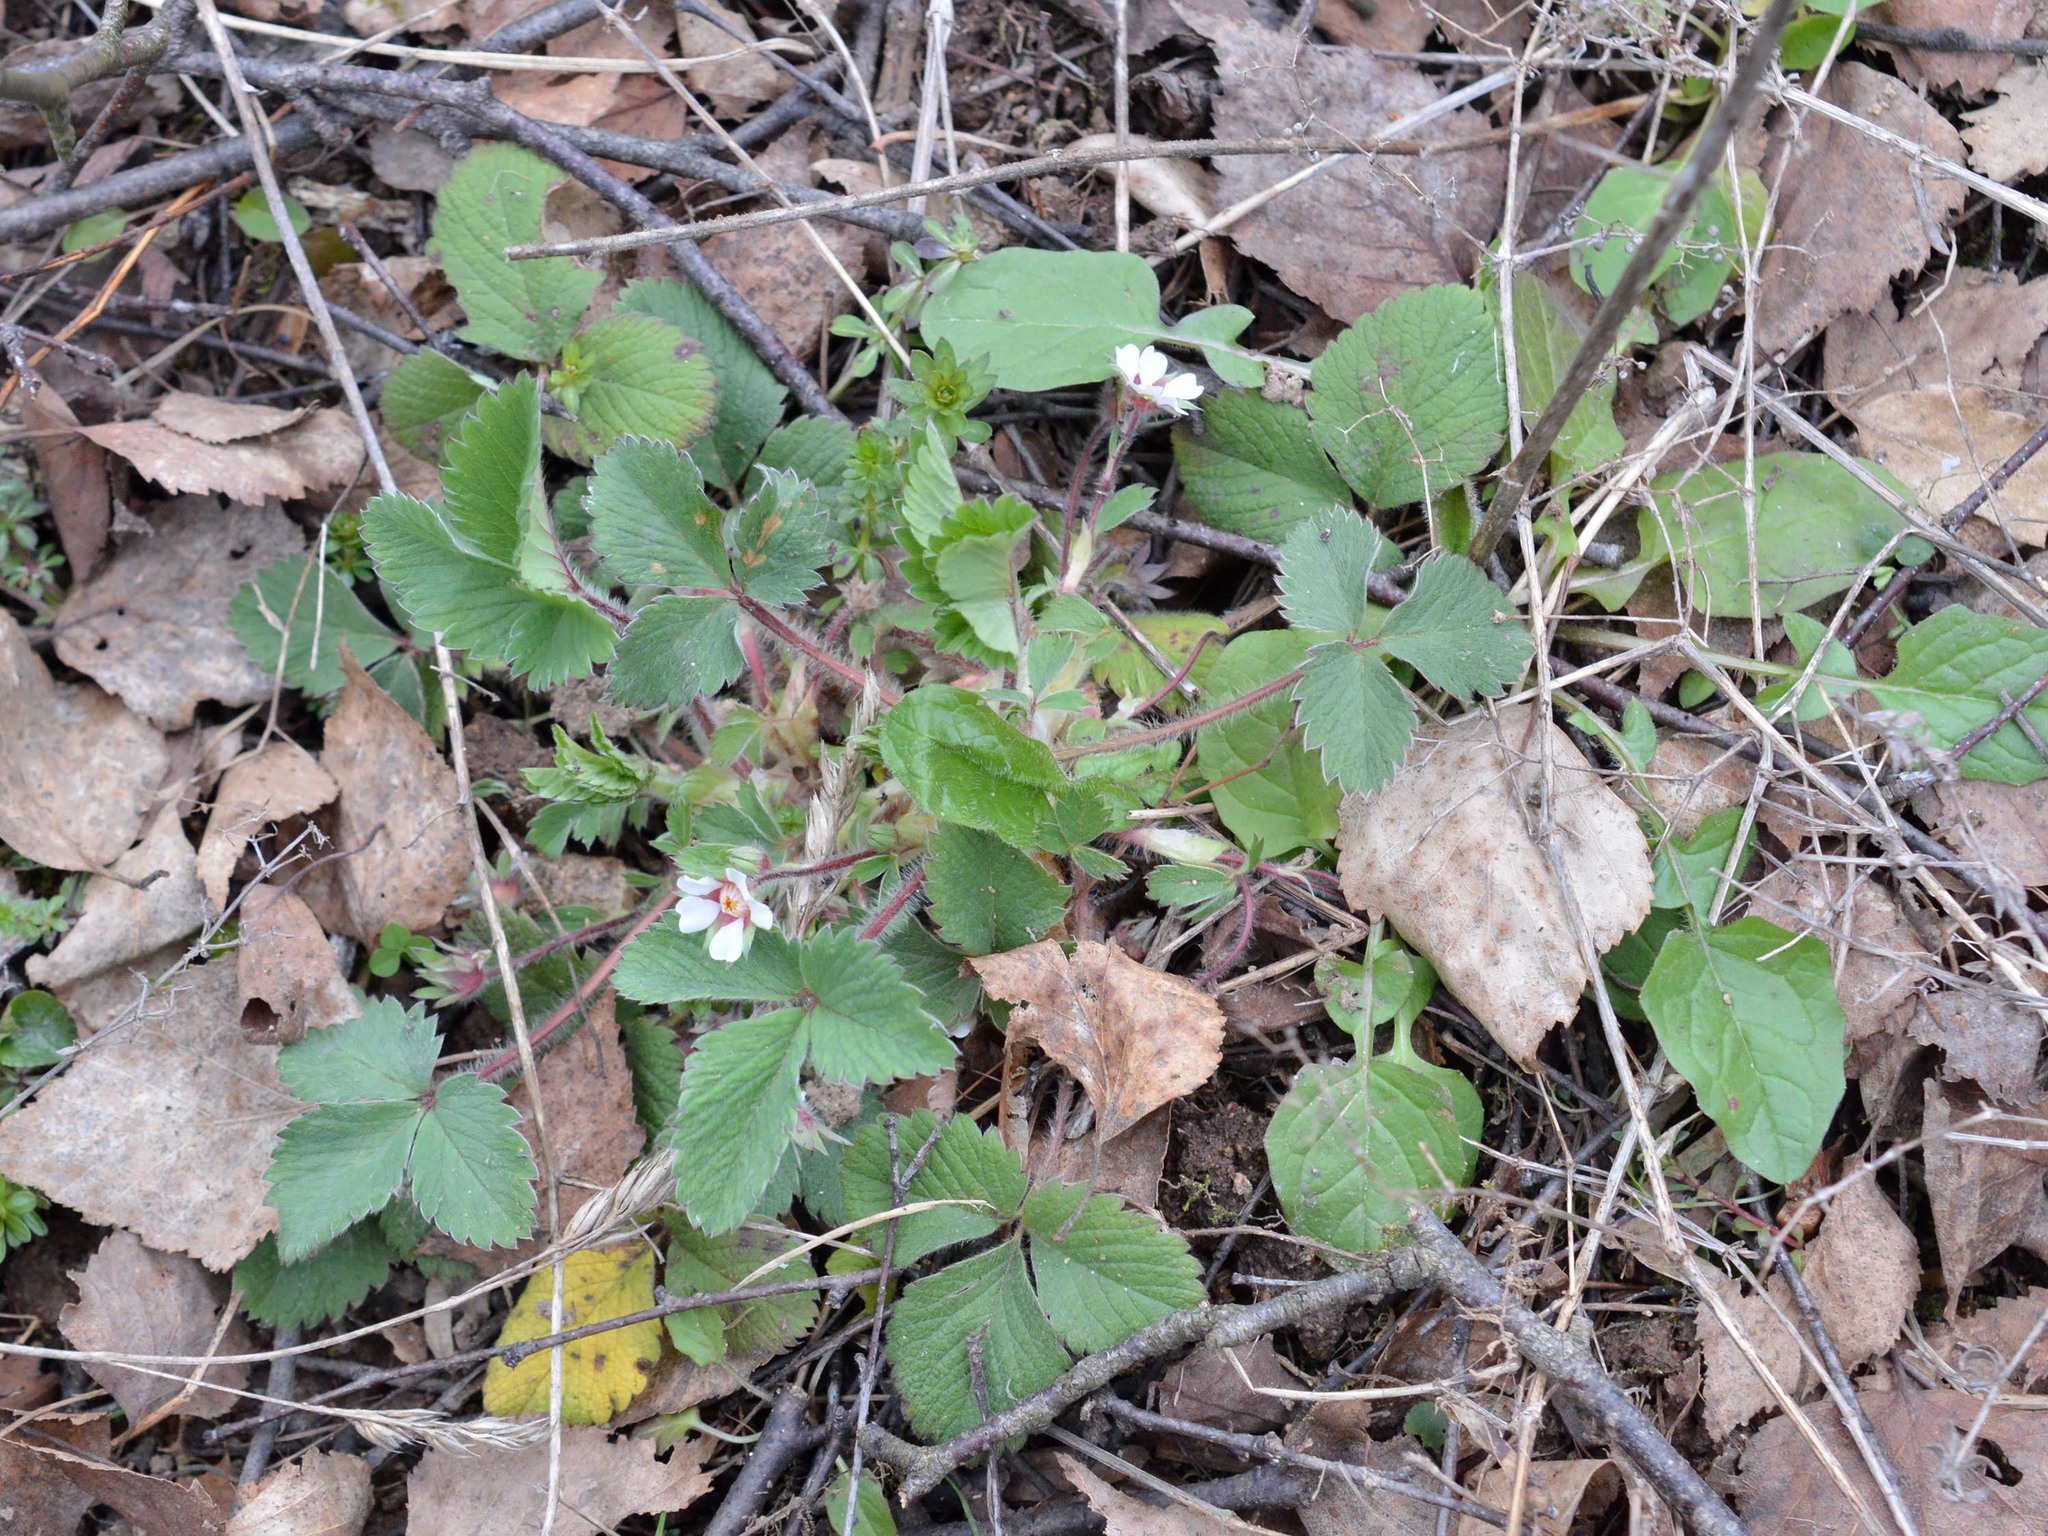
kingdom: Plantae
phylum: Tracheophyta
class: Magnoliopsida
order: Rosales
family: Rosaceae
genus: Potentilla
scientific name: Potentilla micrantha
